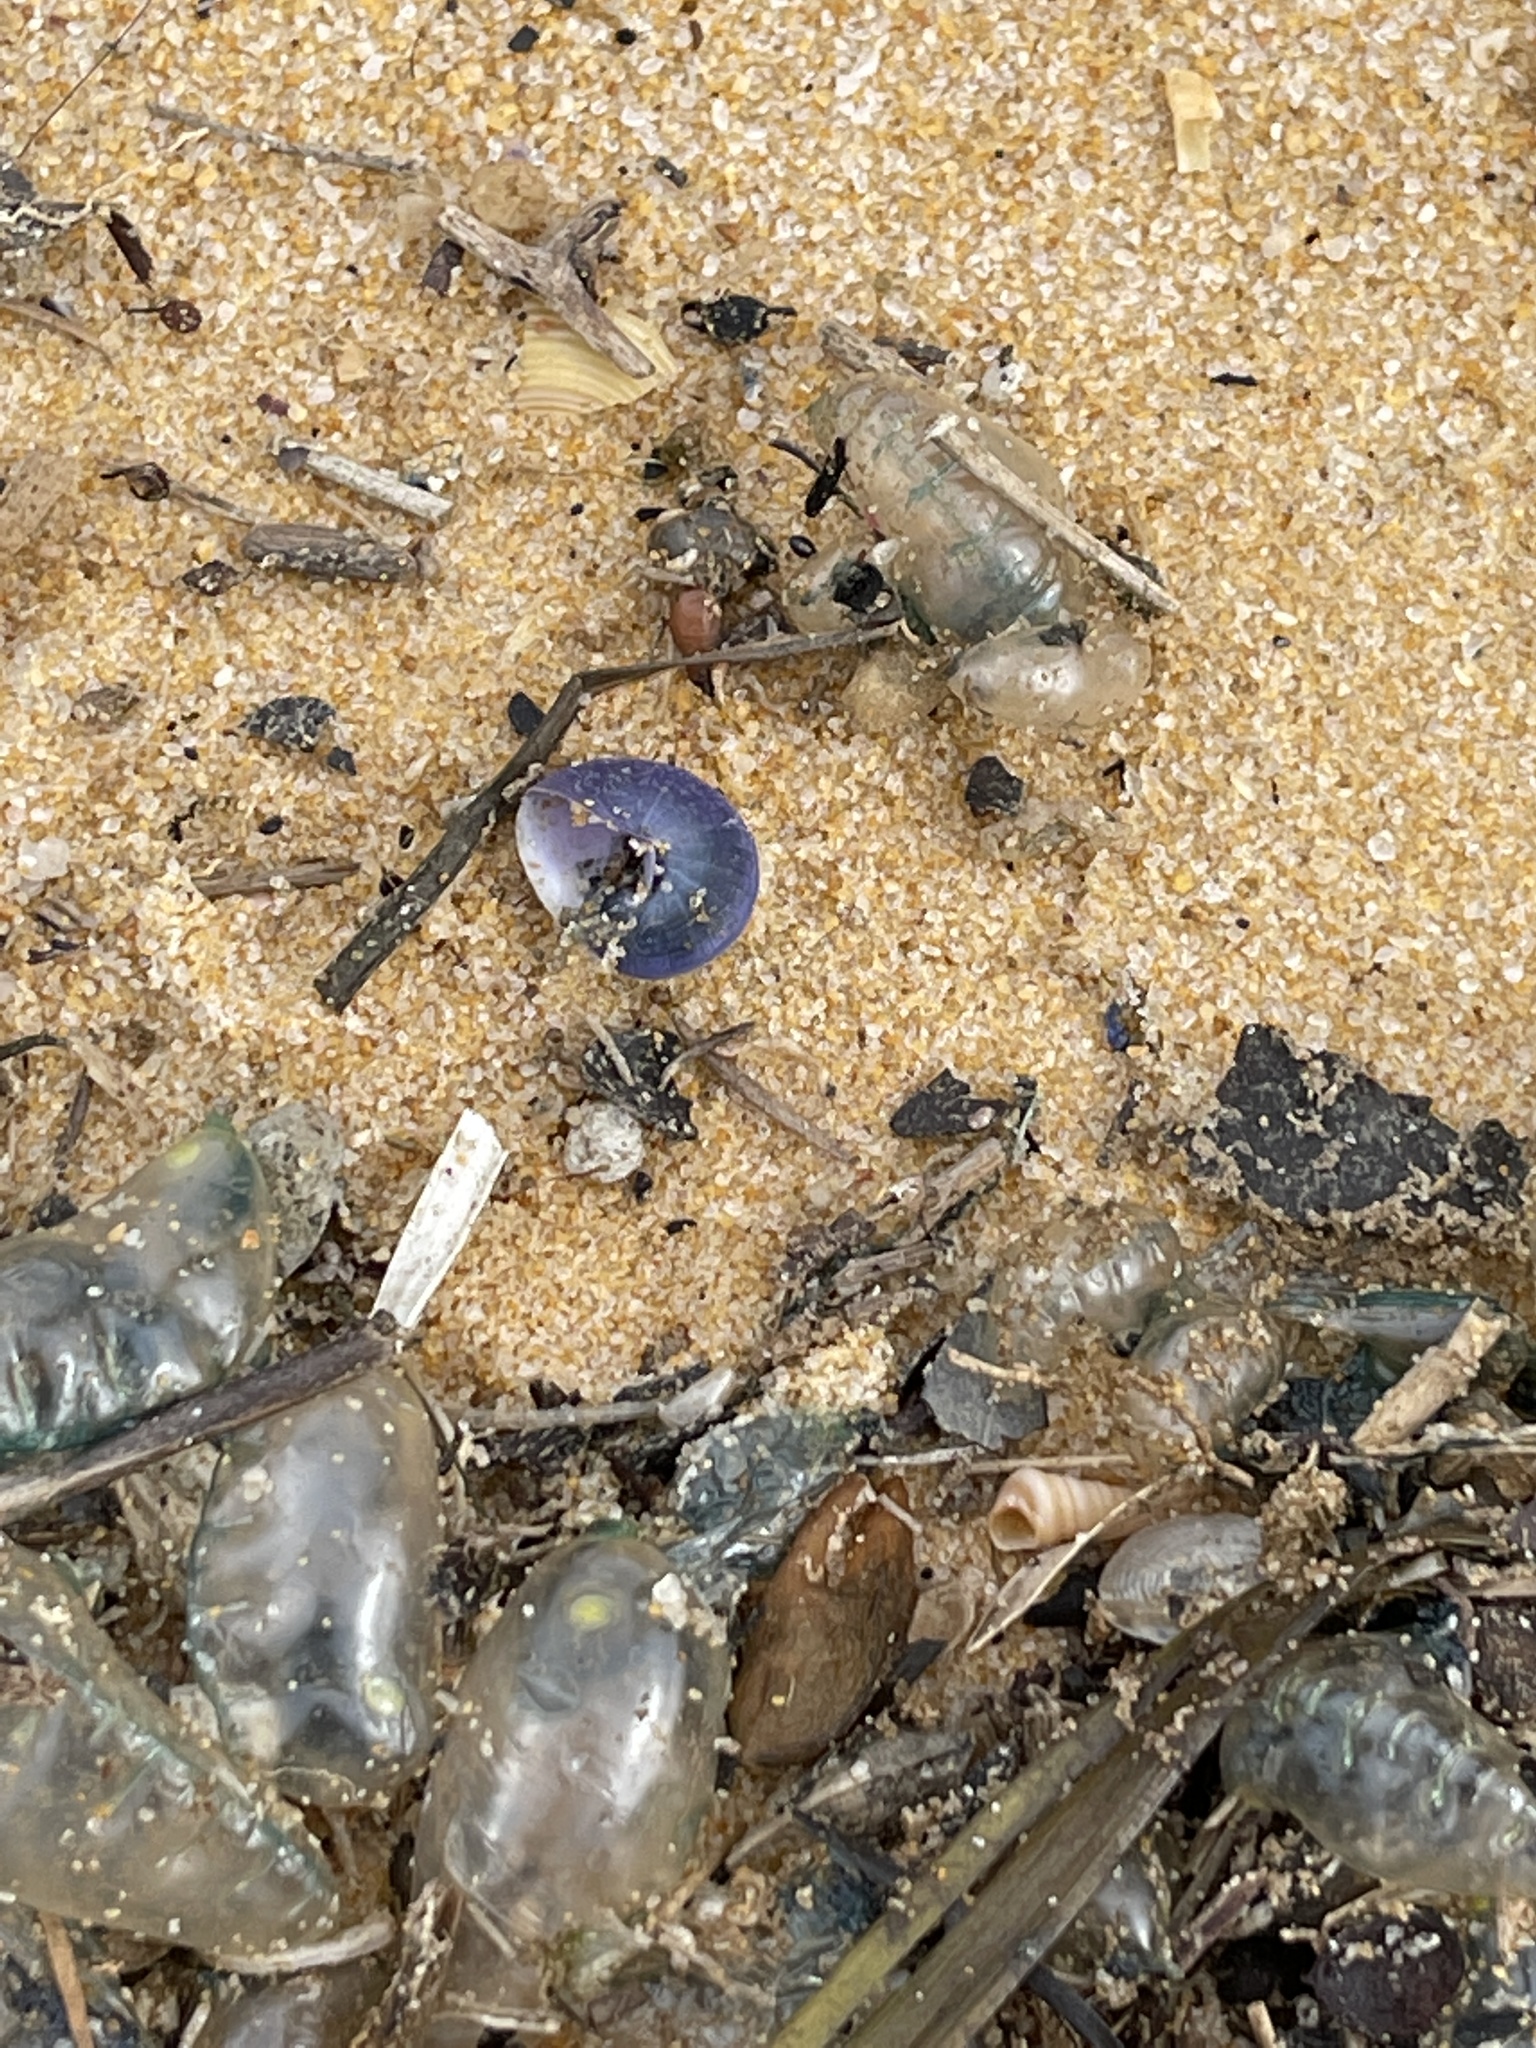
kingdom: Animalia
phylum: Mollusca
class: Gastropoda
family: Epitoniidae
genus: Janthina
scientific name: Janthina janthina
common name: Common janthina
